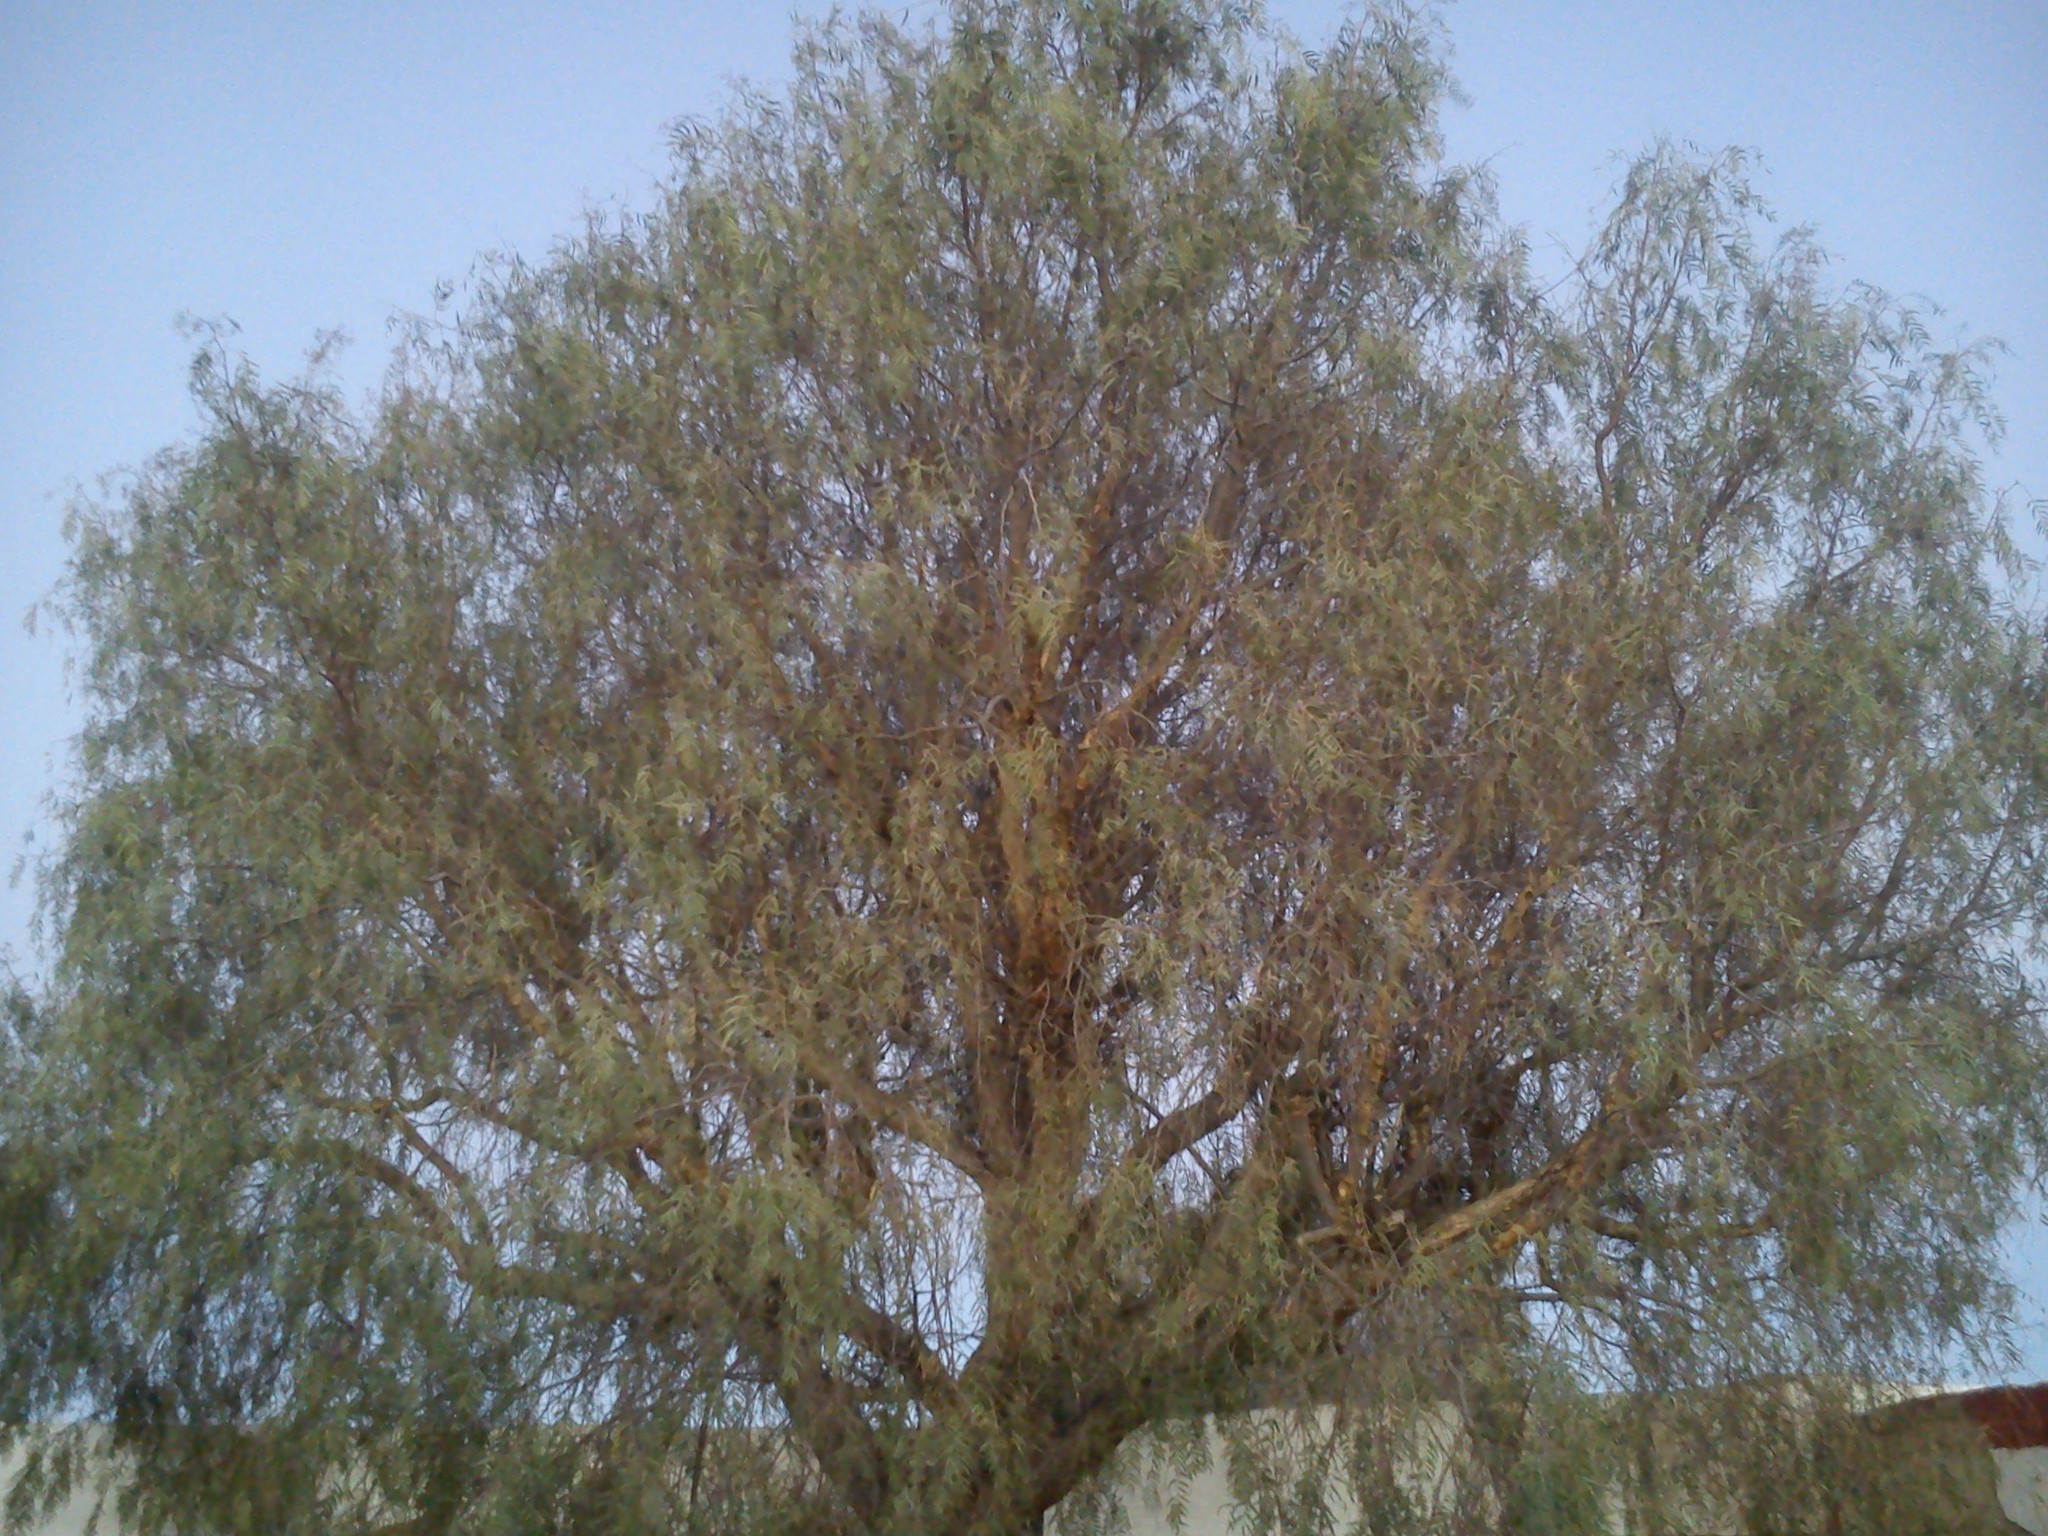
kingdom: Plantae
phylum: Tracheophyta
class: Magnoliopsida
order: Sapindales
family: Anacardiaceae
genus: Schinus
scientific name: Schinus molle
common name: Peruvian peppertree
